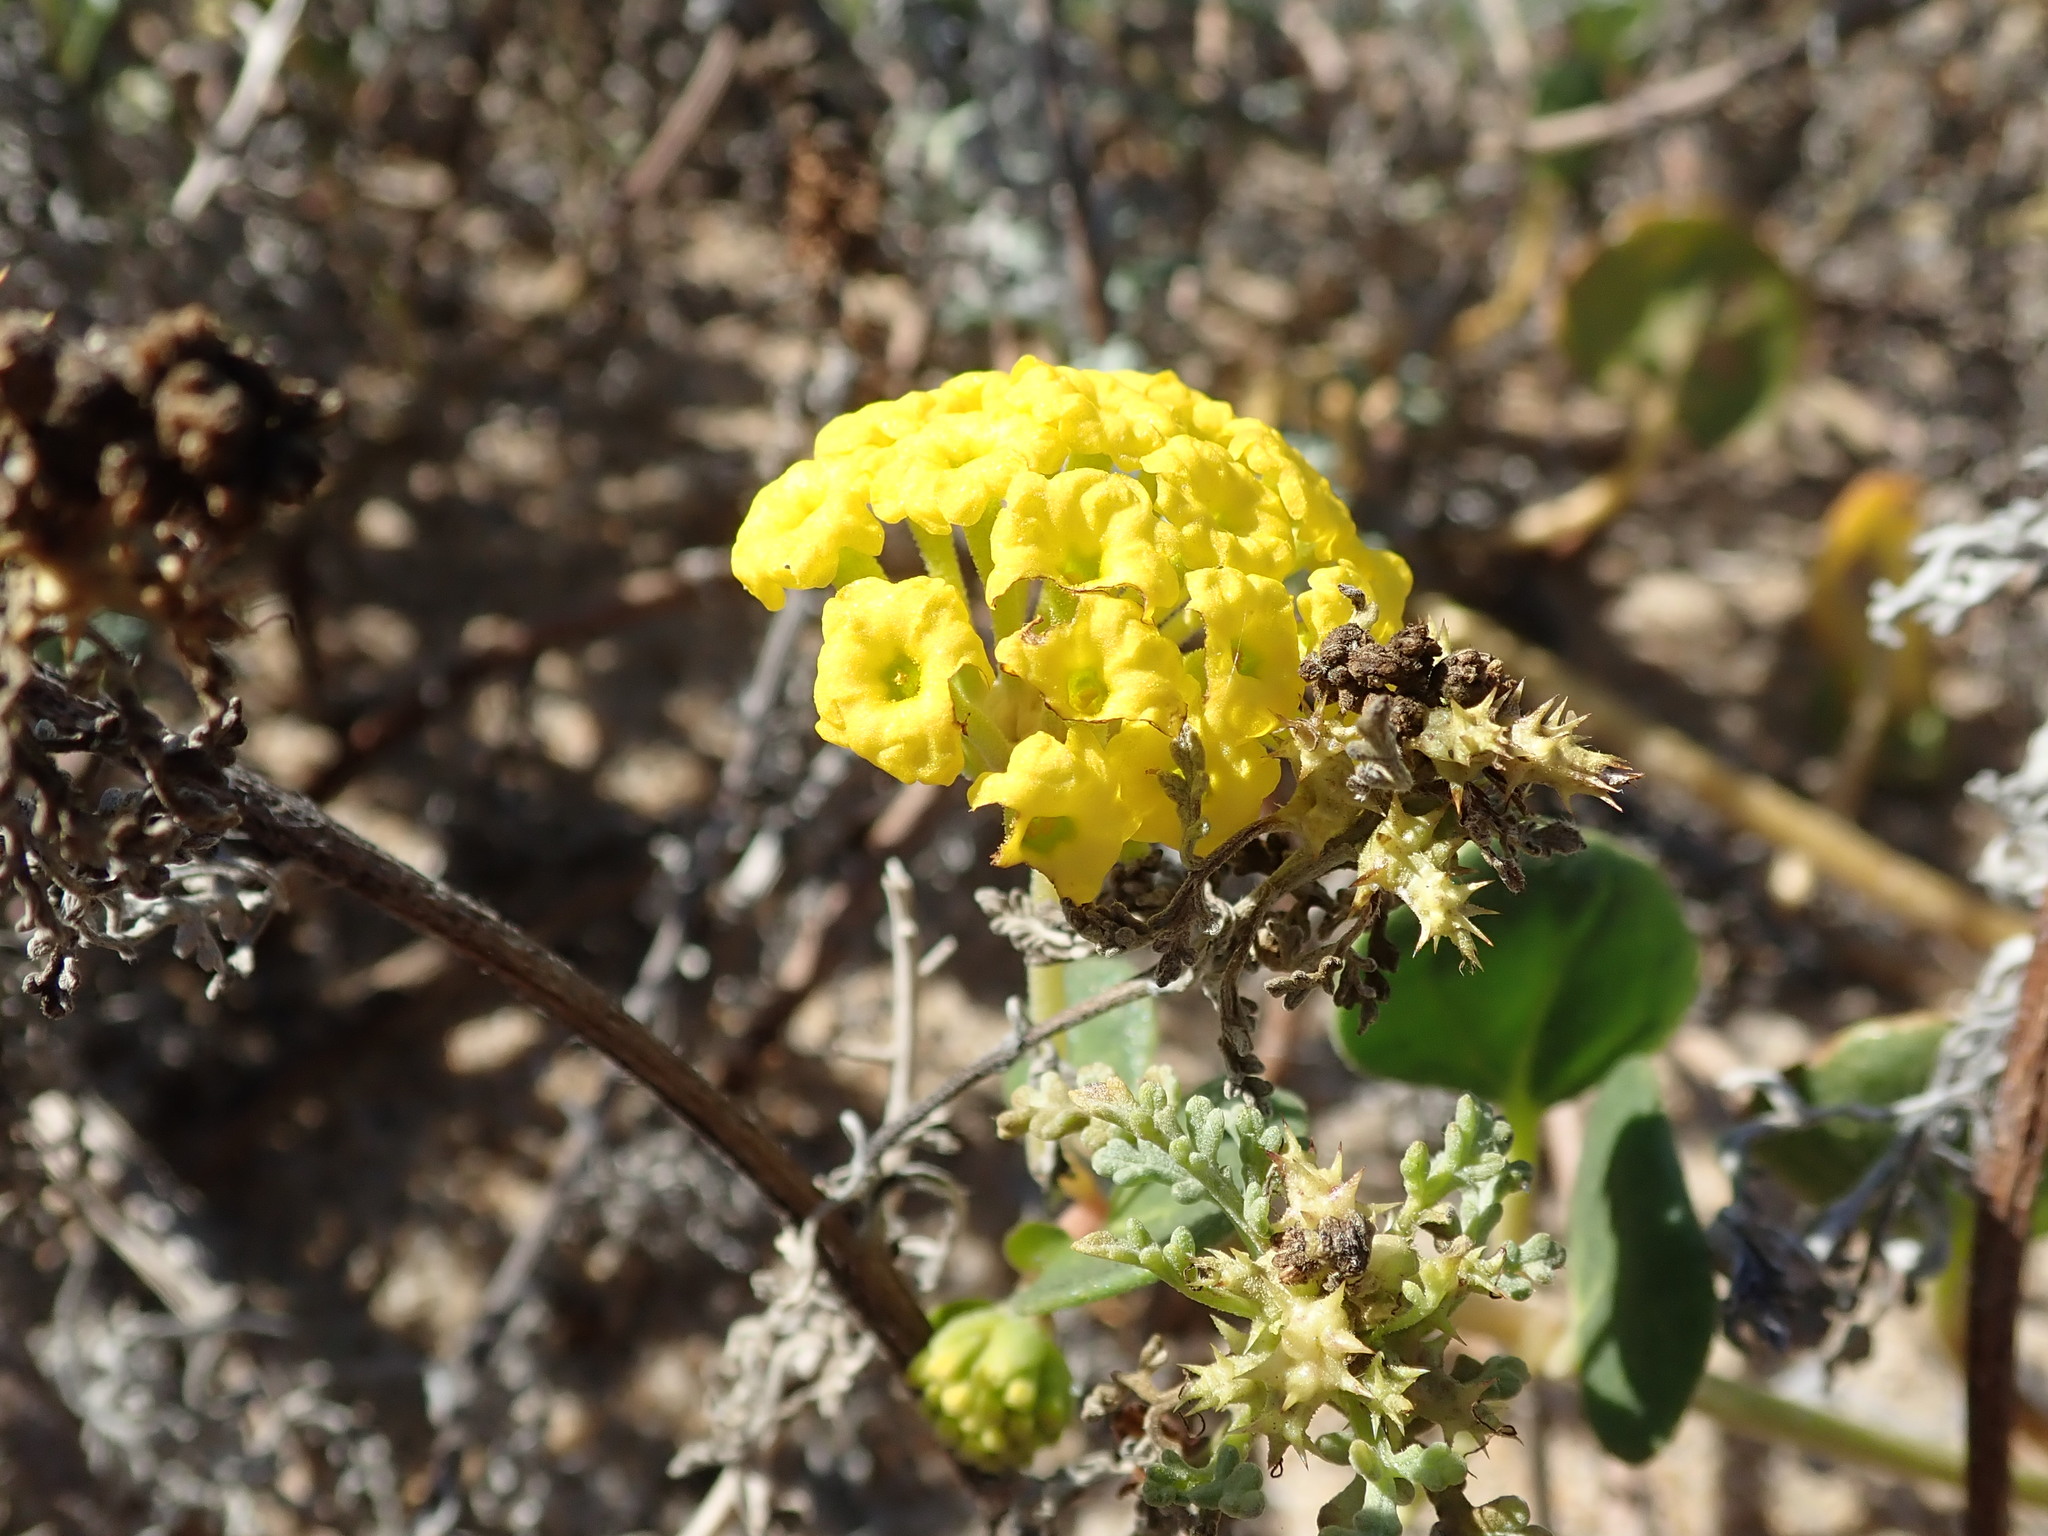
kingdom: Plantae
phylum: Tracheophyta
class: Magnoliopsida
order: Caryophyllales
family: Nyctaginaceae
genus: Abronia
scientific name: Abronia latifolia
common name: Yellow sand-verbena
